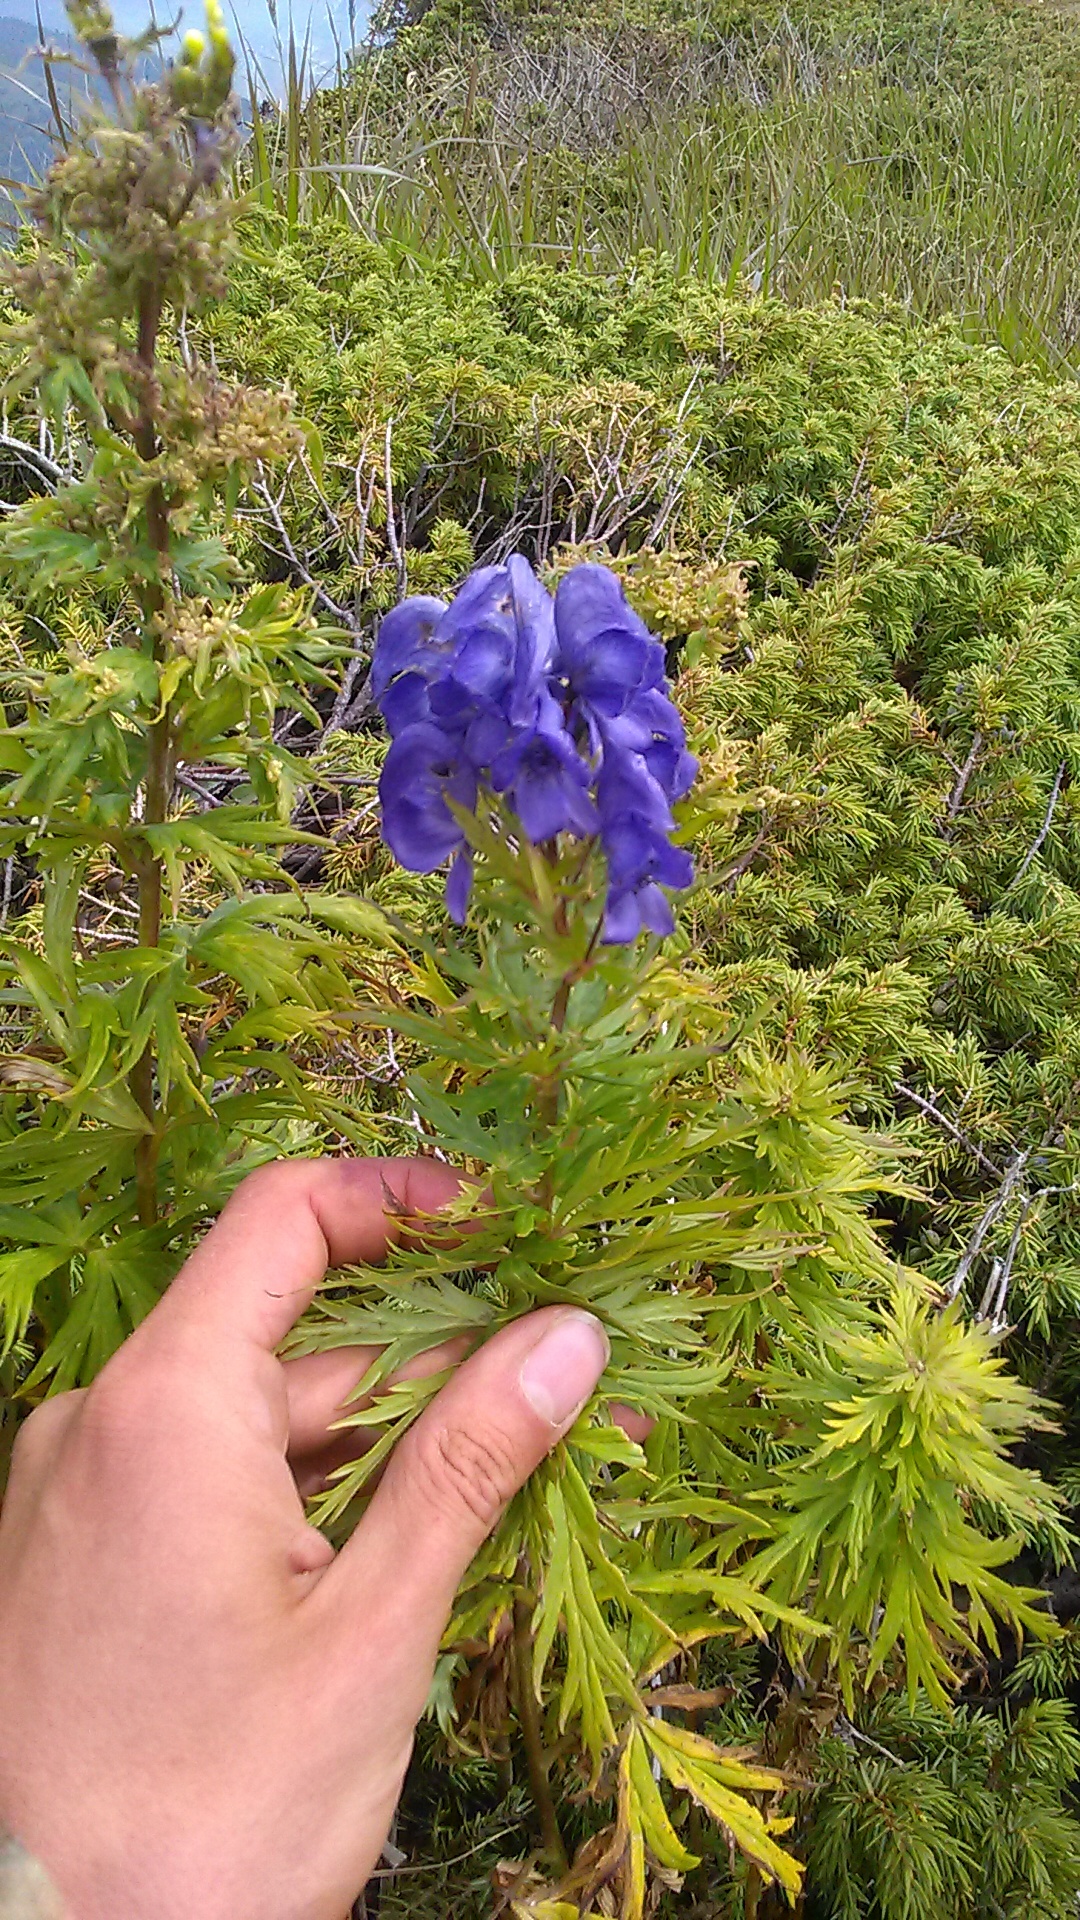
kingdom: Plantae
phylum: Tracheophyta
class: Magnoliopsida
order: Ranunculales
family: Ranunculaceae
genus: Aconitum
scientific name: Aconitum
